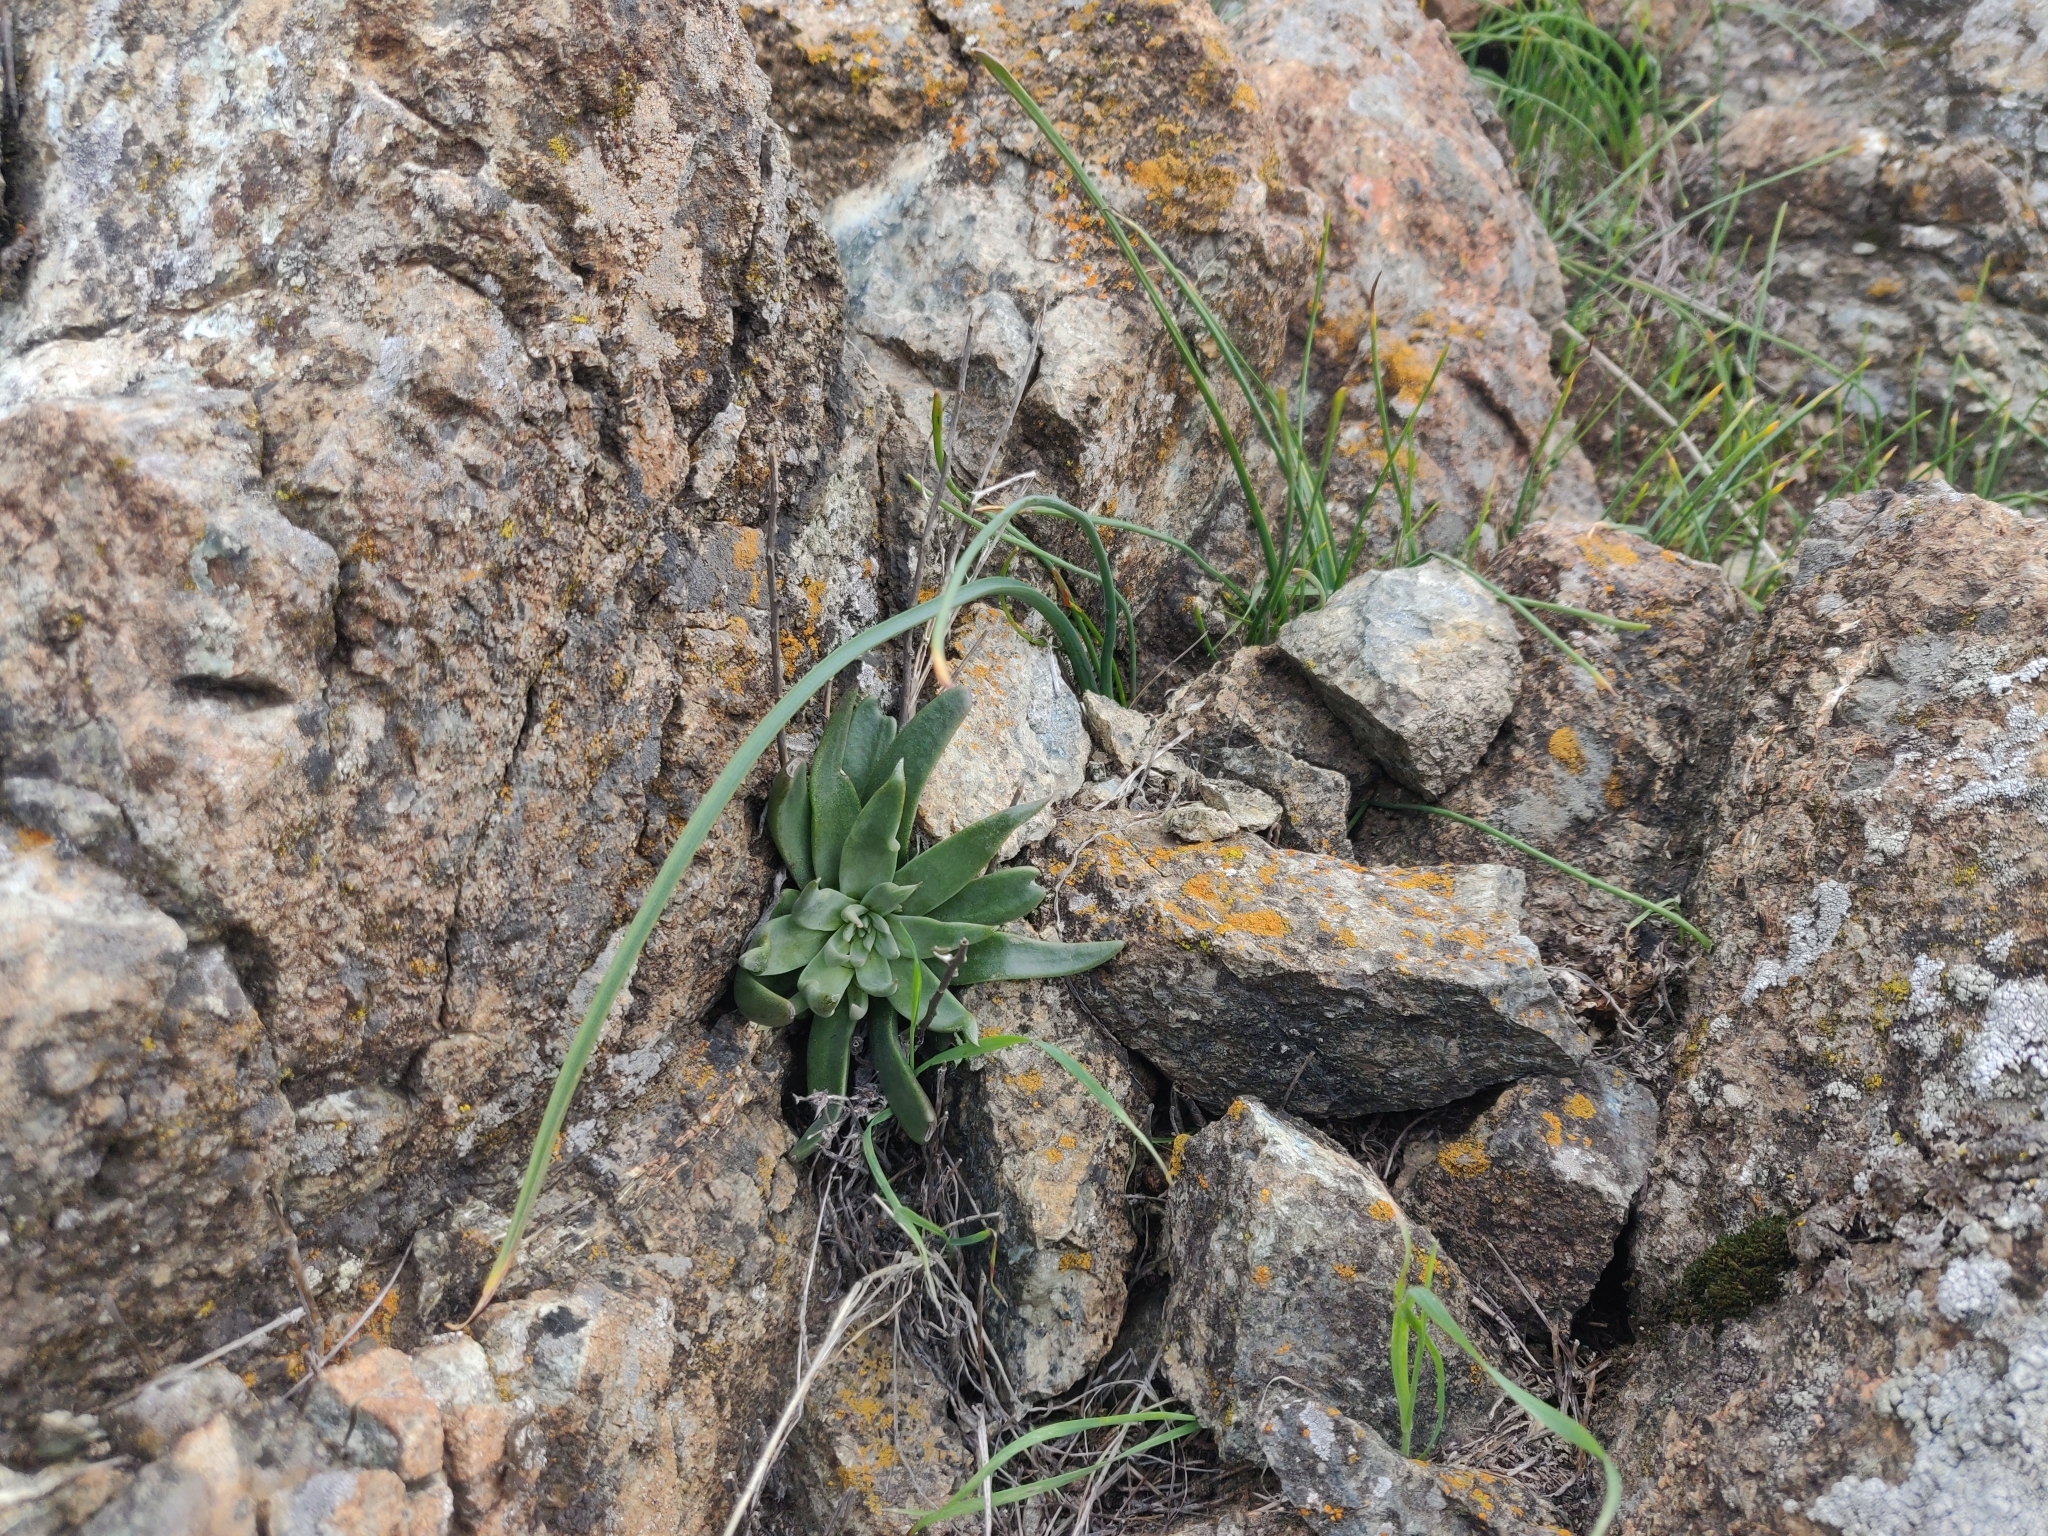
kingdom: Plantae
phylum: Tracheophyta
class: Magnoliopsida
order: Saxifragales
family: Crassulaceae
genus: Dudleya
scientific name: Dudleya abramsii
